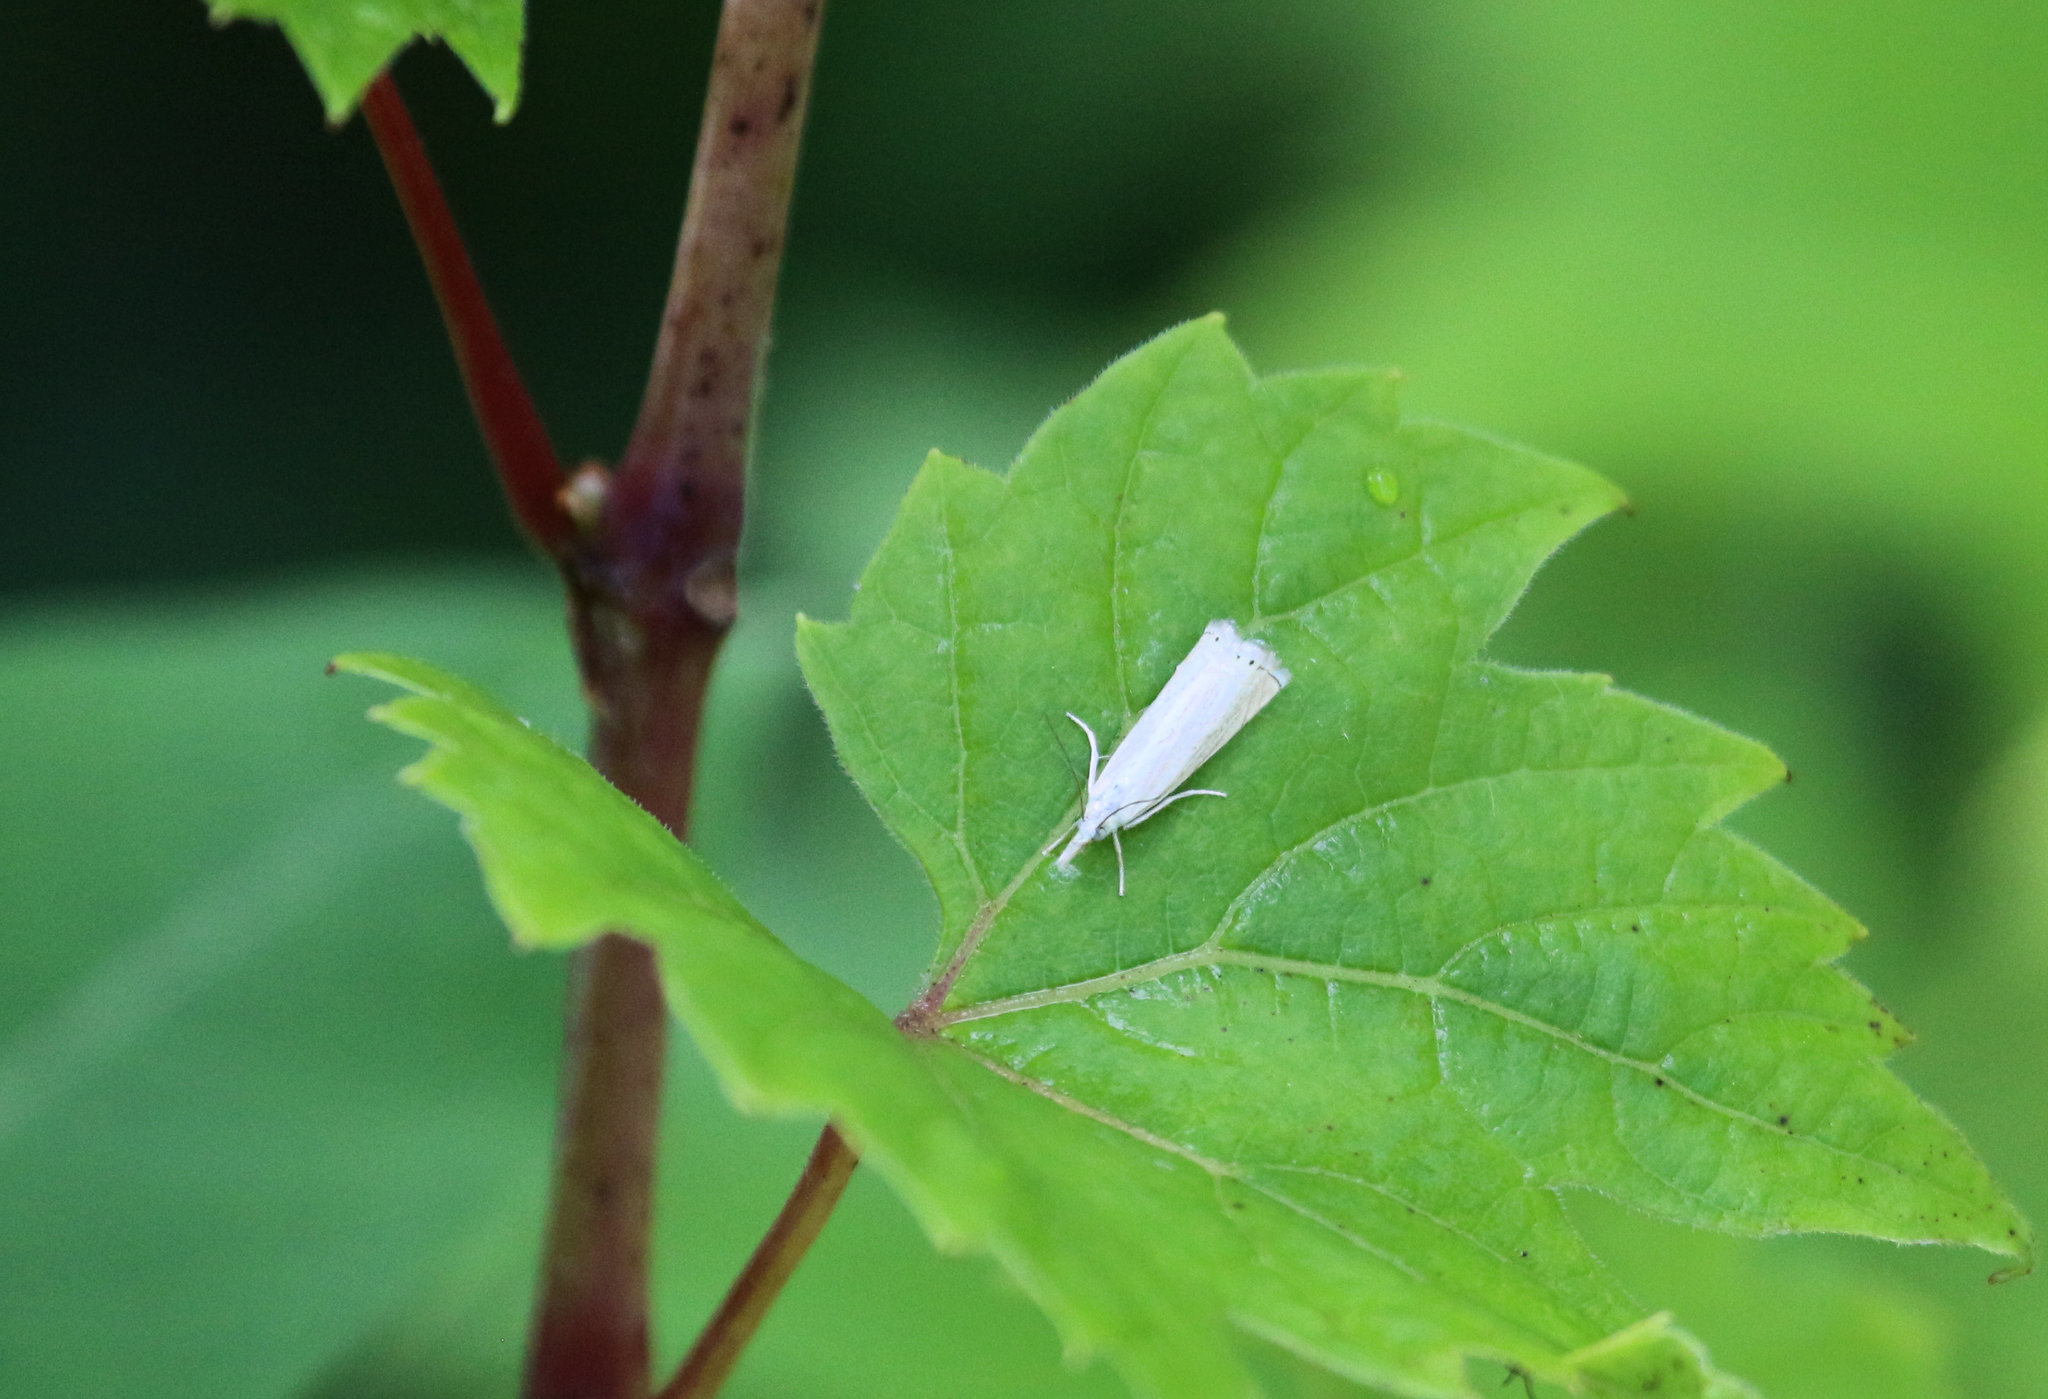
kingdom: Animalia
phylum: Arthropoda
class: Insecta
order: Lepidoptera
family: Crambidae
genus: Crambus
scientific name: Crambus albellus
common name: Small white grass-veneer
